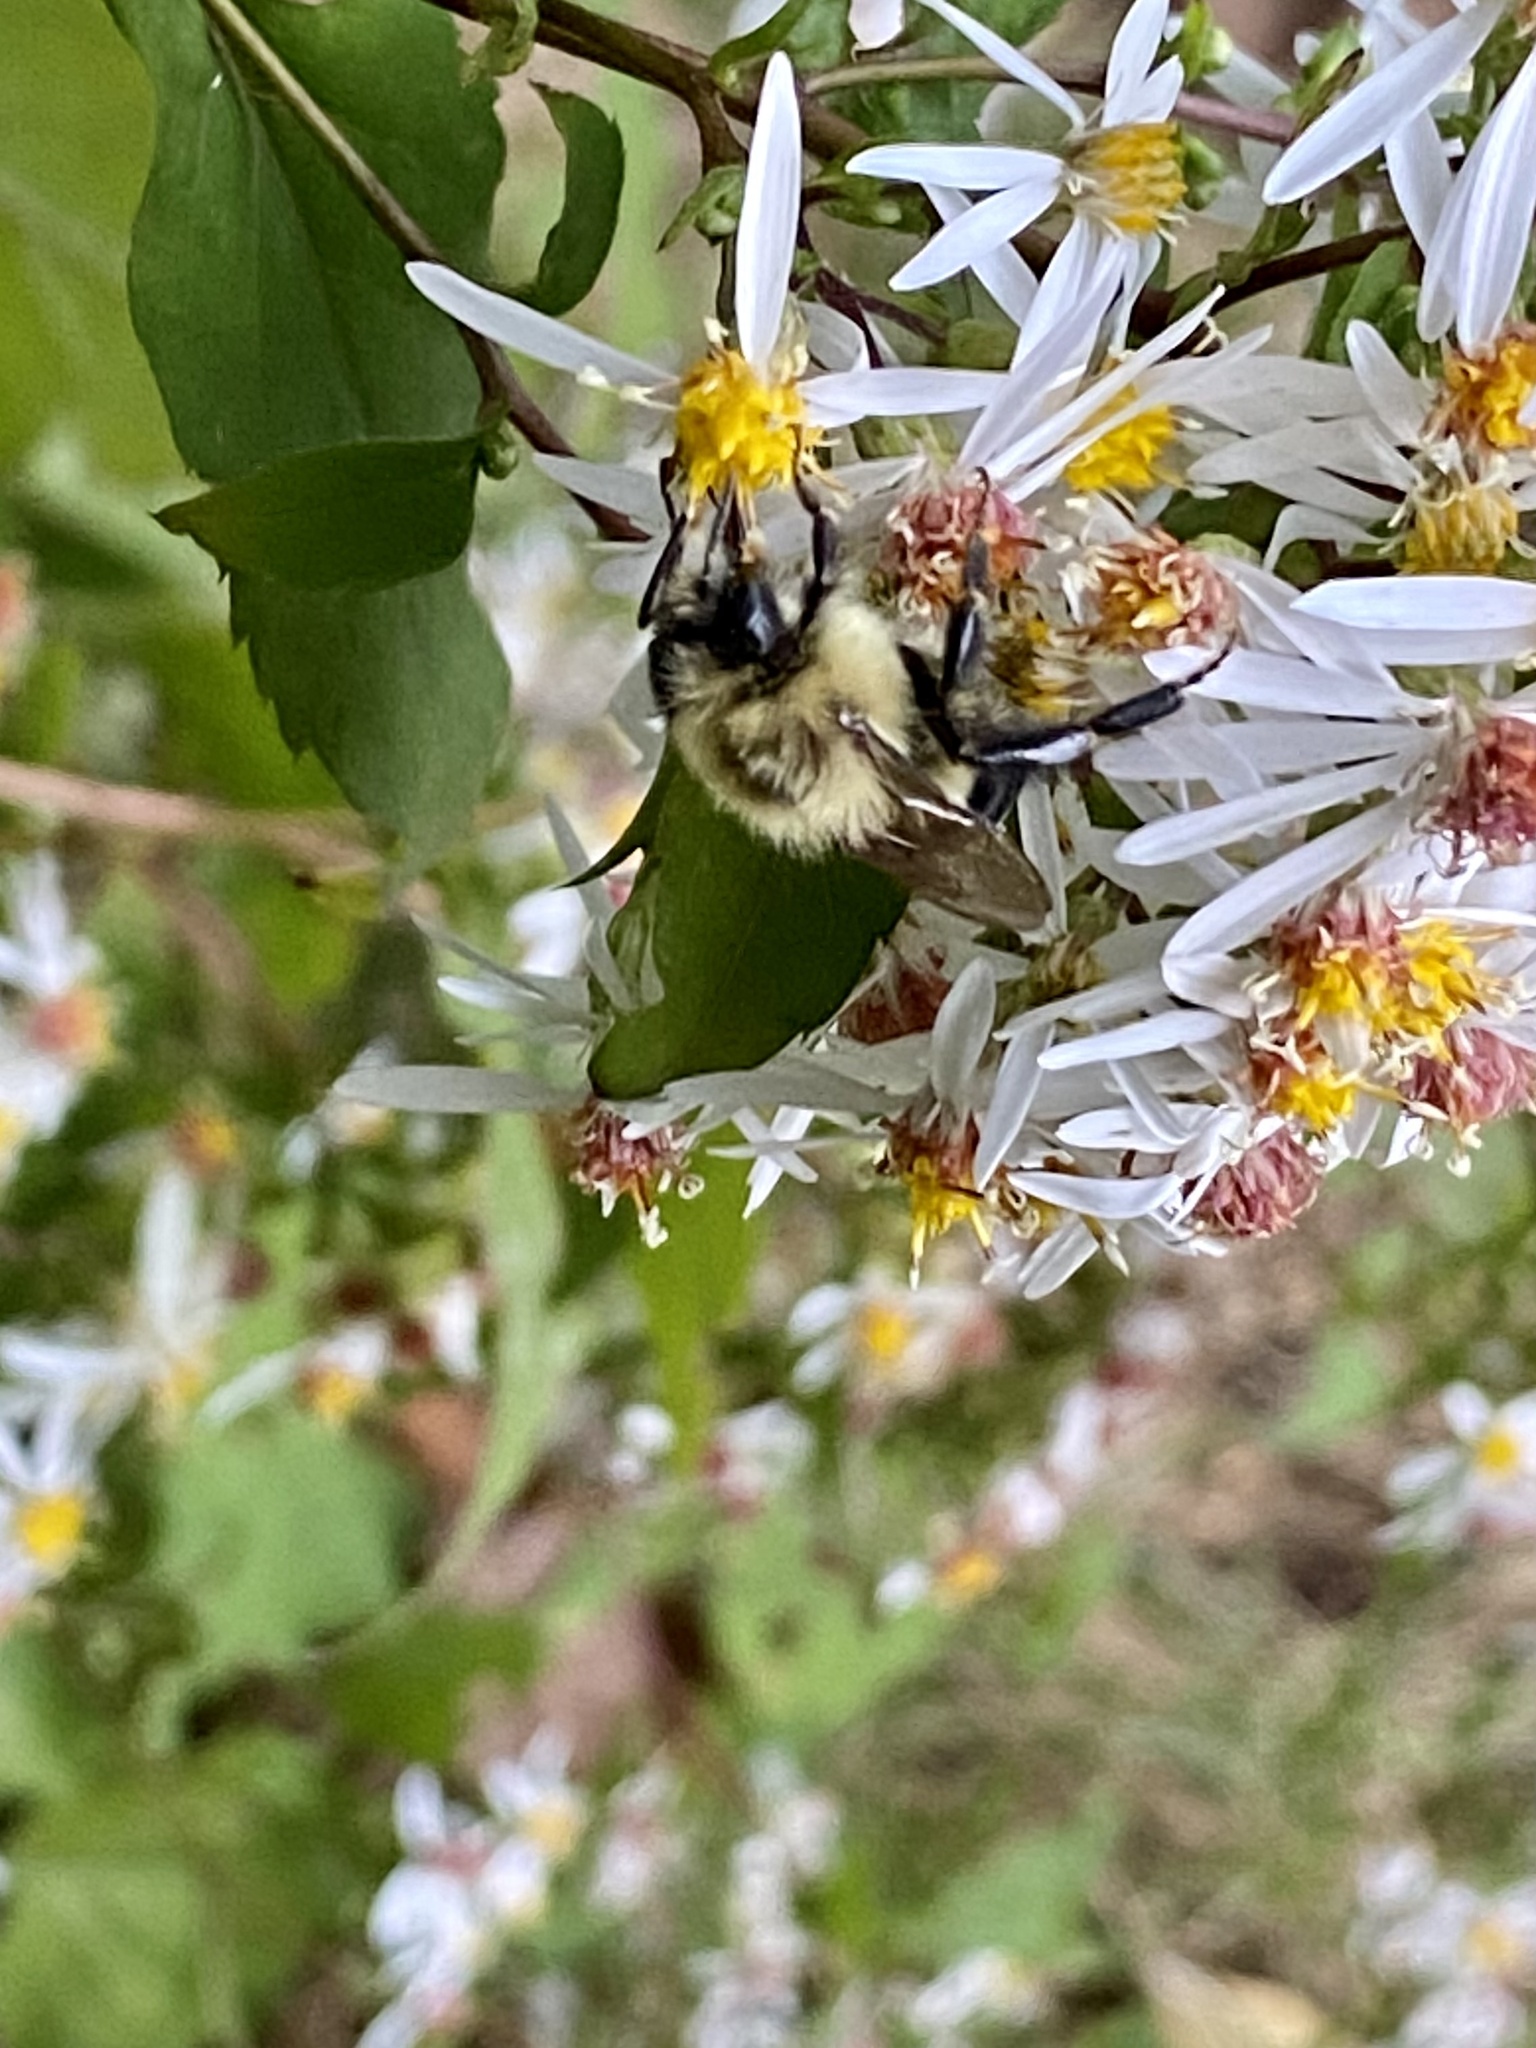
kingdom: Animalia
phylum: Arthropoda
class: Insecta
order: Hymenoptera
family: Apidae
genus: Bombus
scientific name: Bombus impatiens
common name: Common eastern bumble bee
